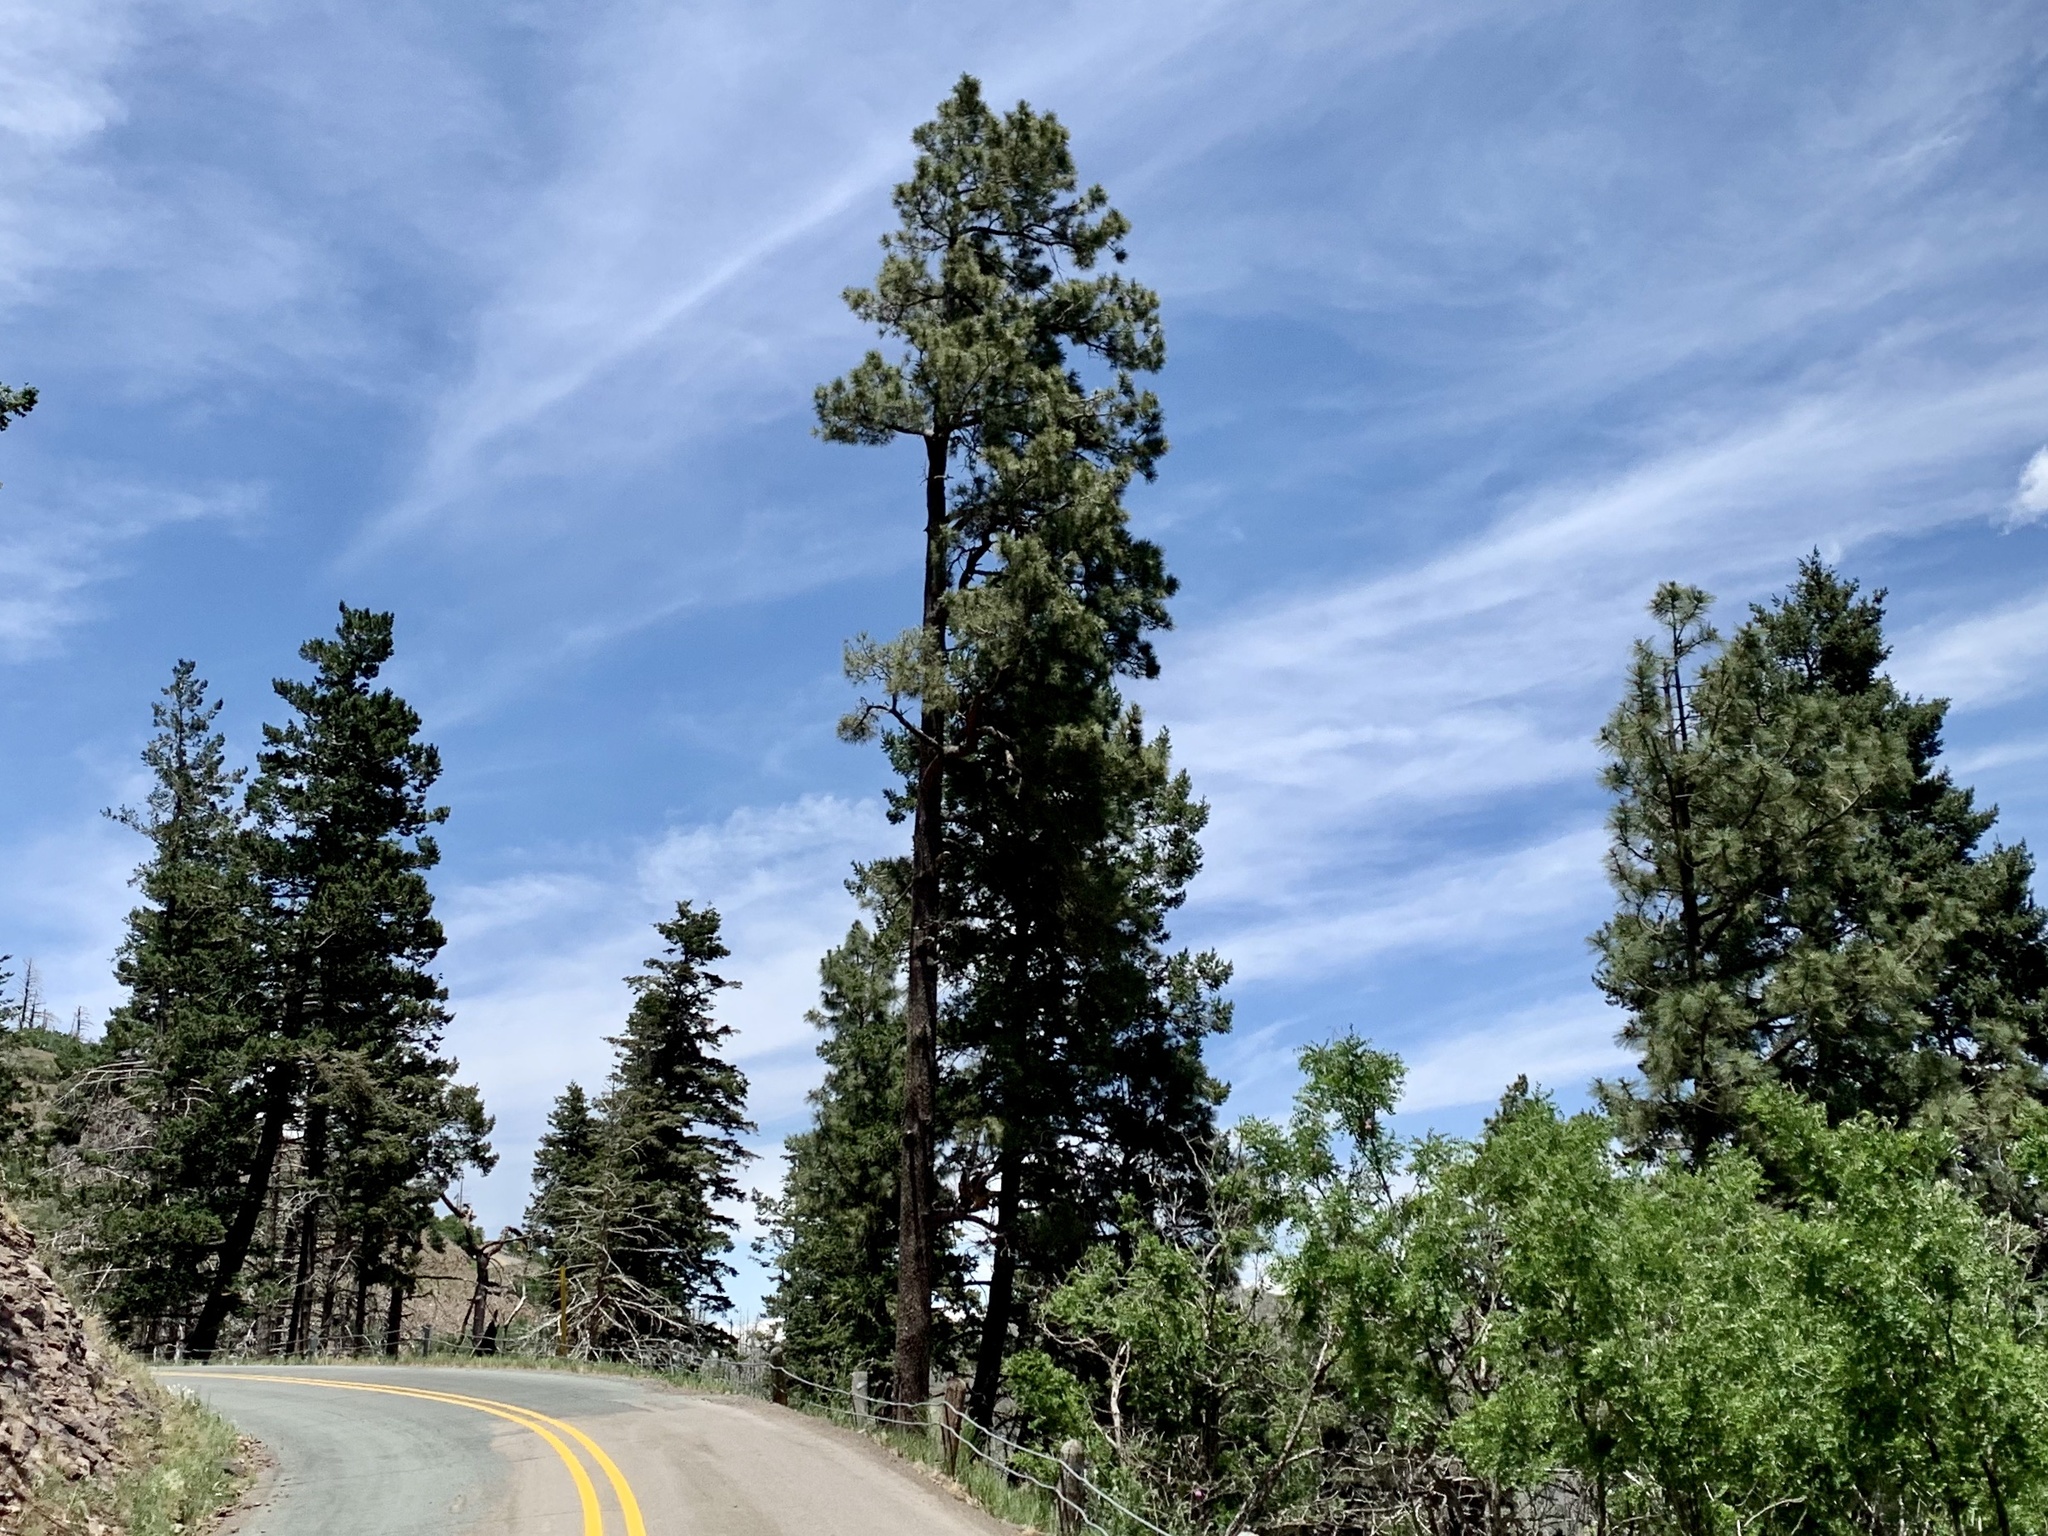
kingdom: Plantae
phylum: Tracheophyta
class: Pinopsida
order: Pinales
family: Pinaceae
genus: Pinus
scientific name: Pinus ponderosa
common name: Western yellow-pine
